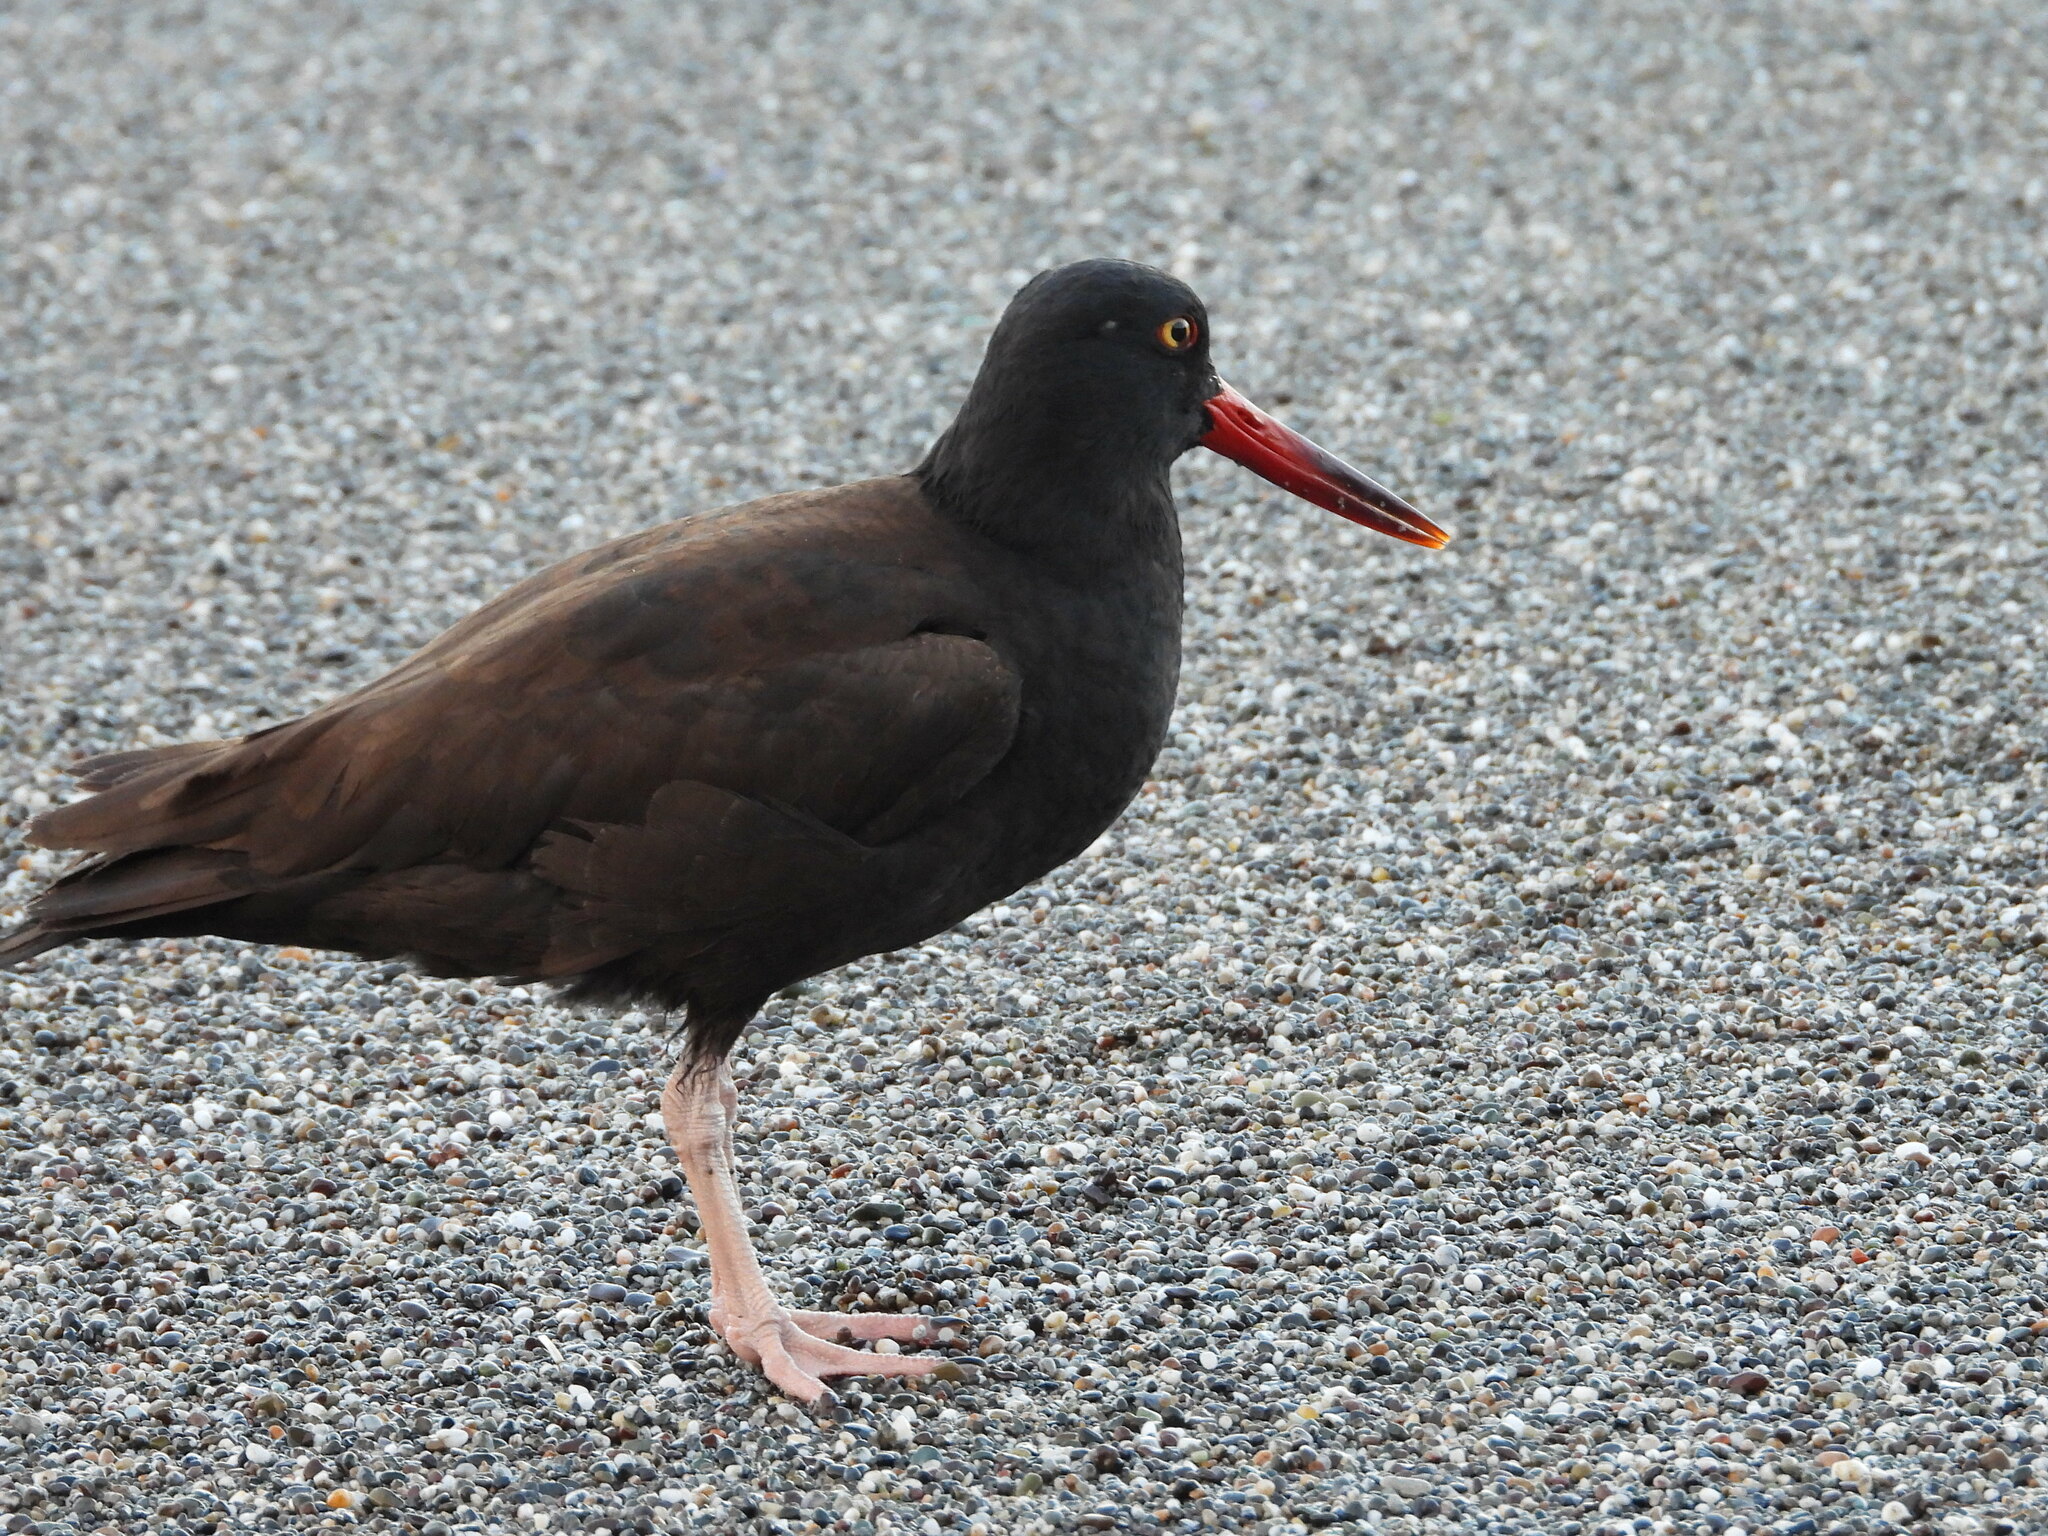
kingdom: Animalia
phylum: Chordata
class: Aves
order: Charadriiformes
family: Haematopodidae
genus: Haematopus
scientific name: Haematopus bachmani
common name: Black oystercatcher
